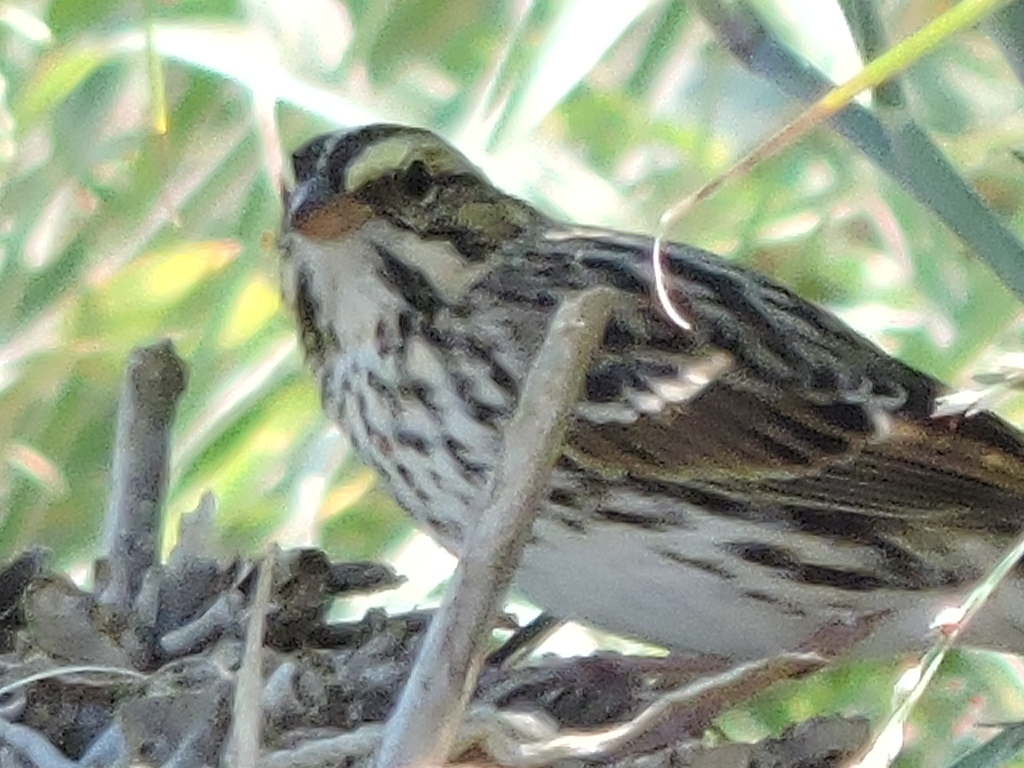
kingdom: Animalia
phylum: Chordata
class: Aves
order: Passeriformes
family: Passerellidae
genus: Passerculus
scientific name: Passerculus sandwichensis
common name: Savannah sparrow
